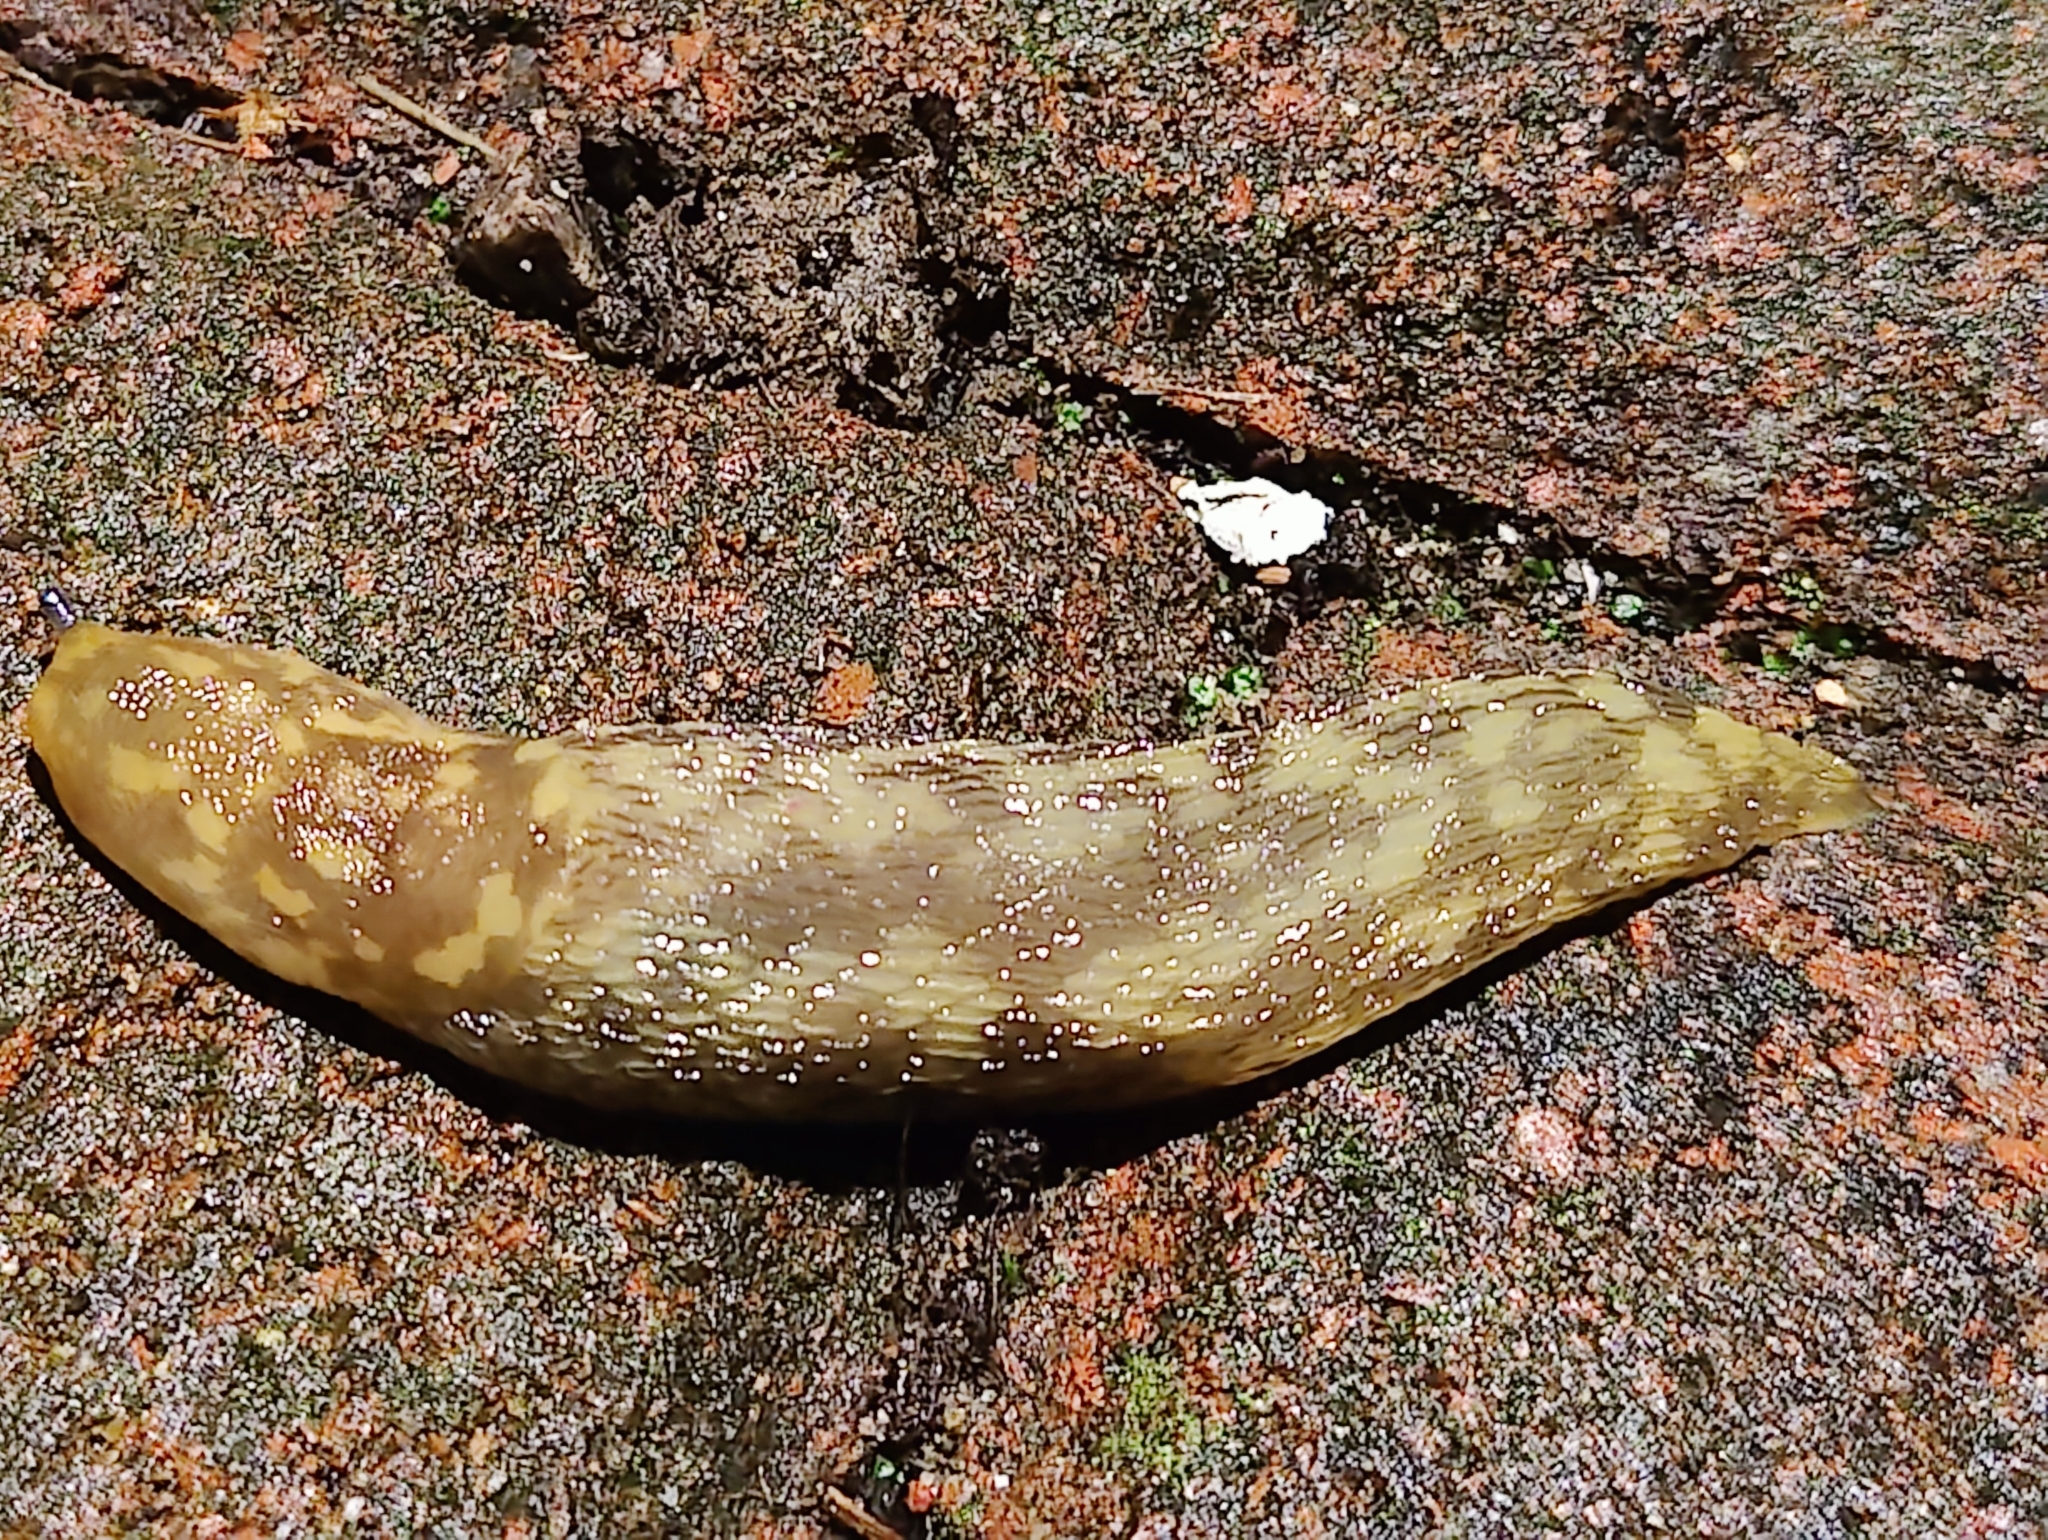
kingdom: Animalia
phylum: Mollusca
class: Gastropoda
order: Stylommatophora
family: Limacidae
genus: Limacus
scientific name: Limacus maculatus
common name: Irish yellow slug
